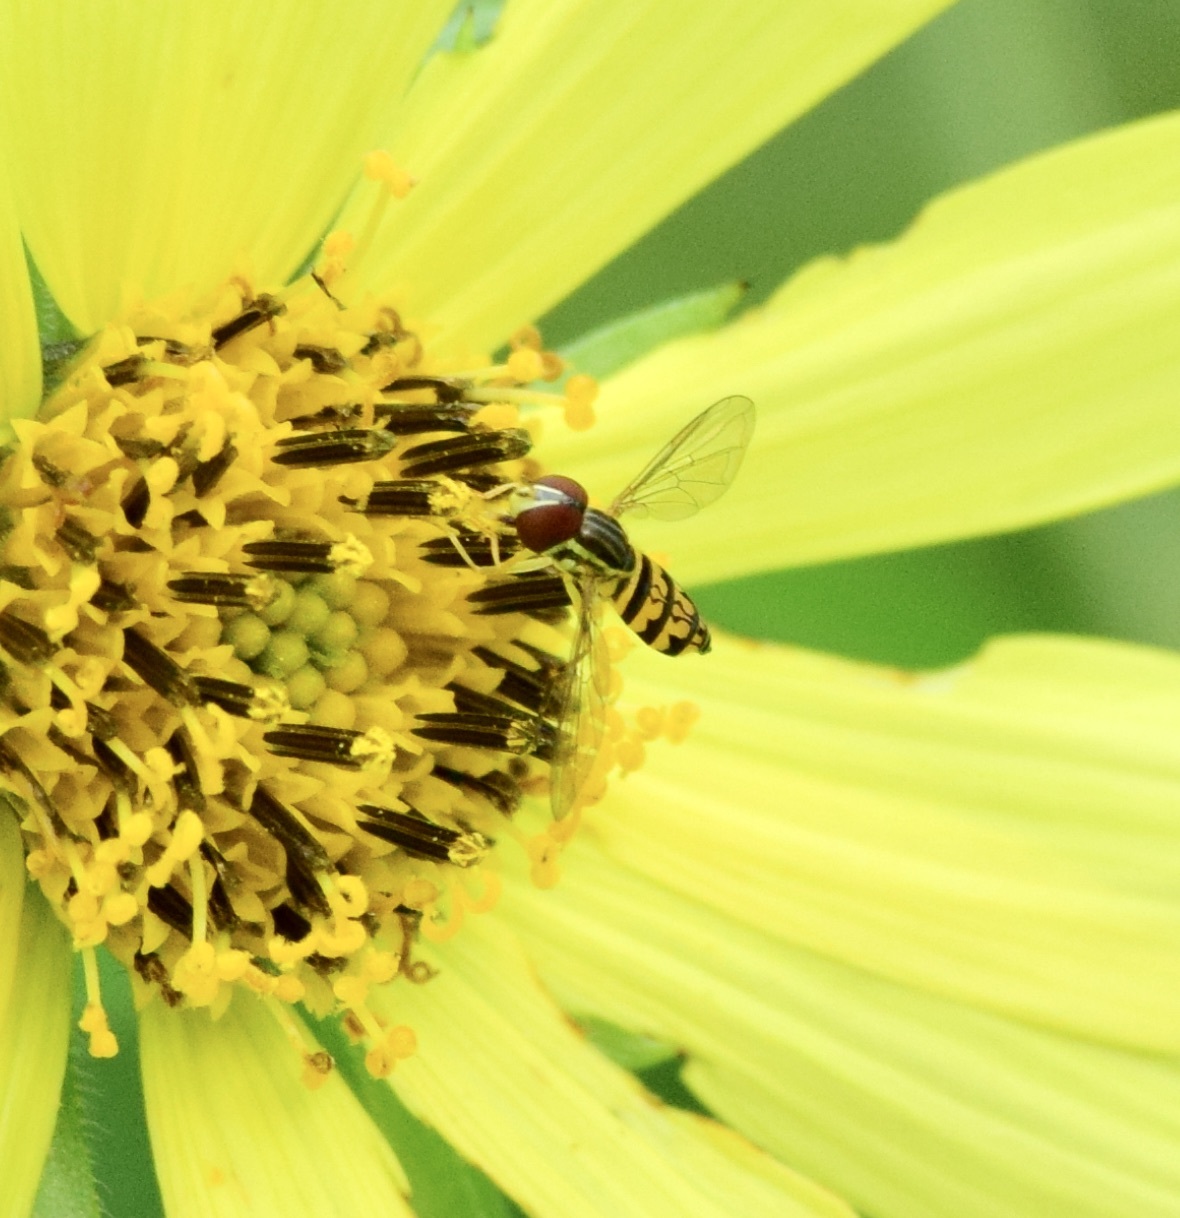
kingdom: Animalia
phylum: Arthropoda
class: Insecta
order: Diptera
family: Syrphidae
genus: Toxomerus
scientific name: Toxomerus geminatus
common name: Eastern calligrapher
